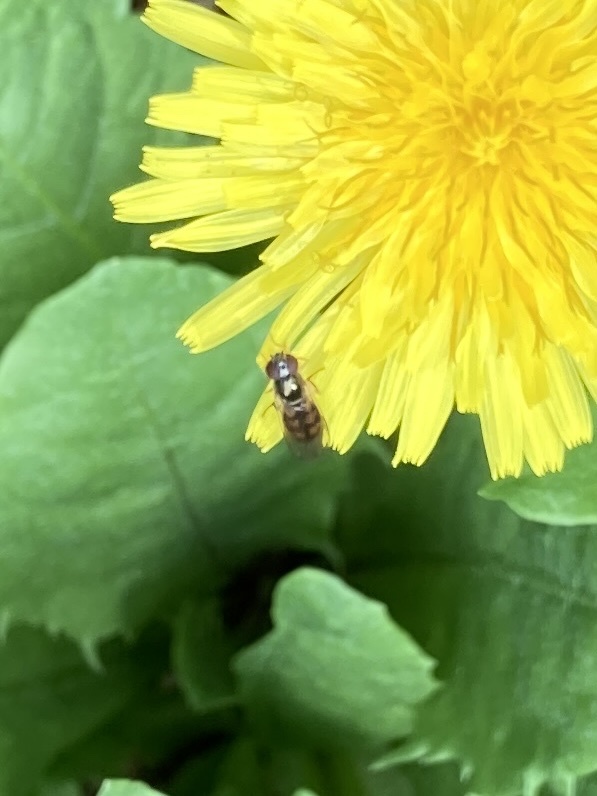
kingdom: Animalia
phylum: Arthropoda
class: Insecta
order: Diptera
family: Syrphidae
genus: Melanostoma
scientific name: Melanostoma fasciatum
